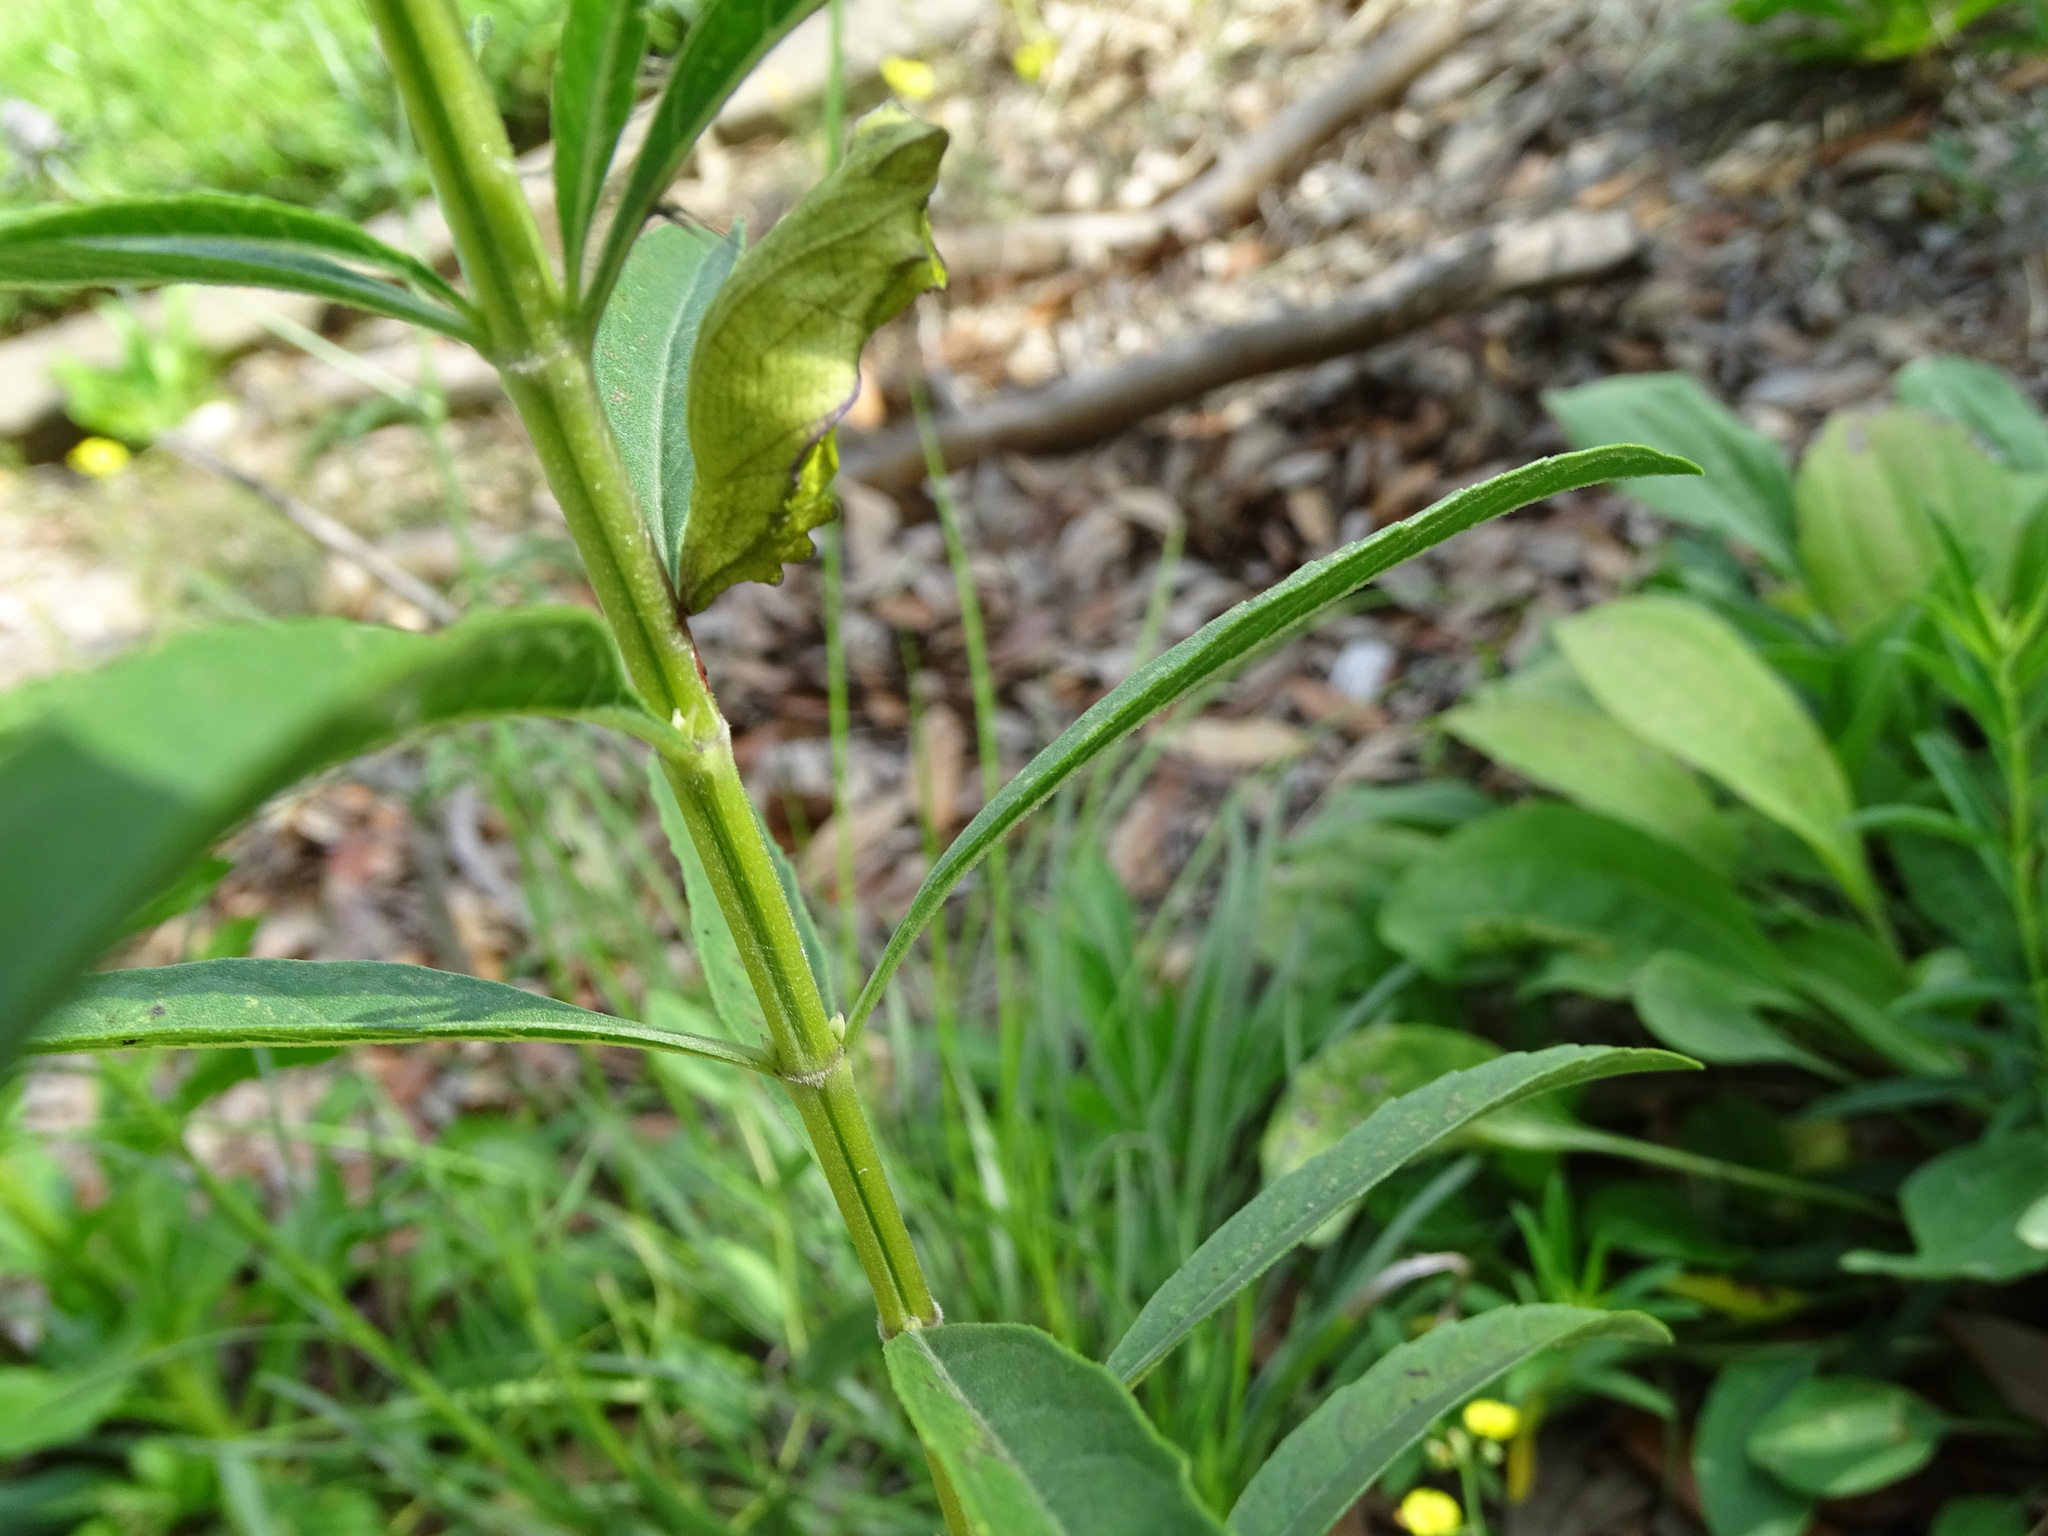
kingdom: Animalia
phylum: Arthropoda
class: Insecta
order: Lepidoptera
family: Papilionidae
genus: Battus
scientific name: Battus philenor
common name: Pipevine swallowtail
